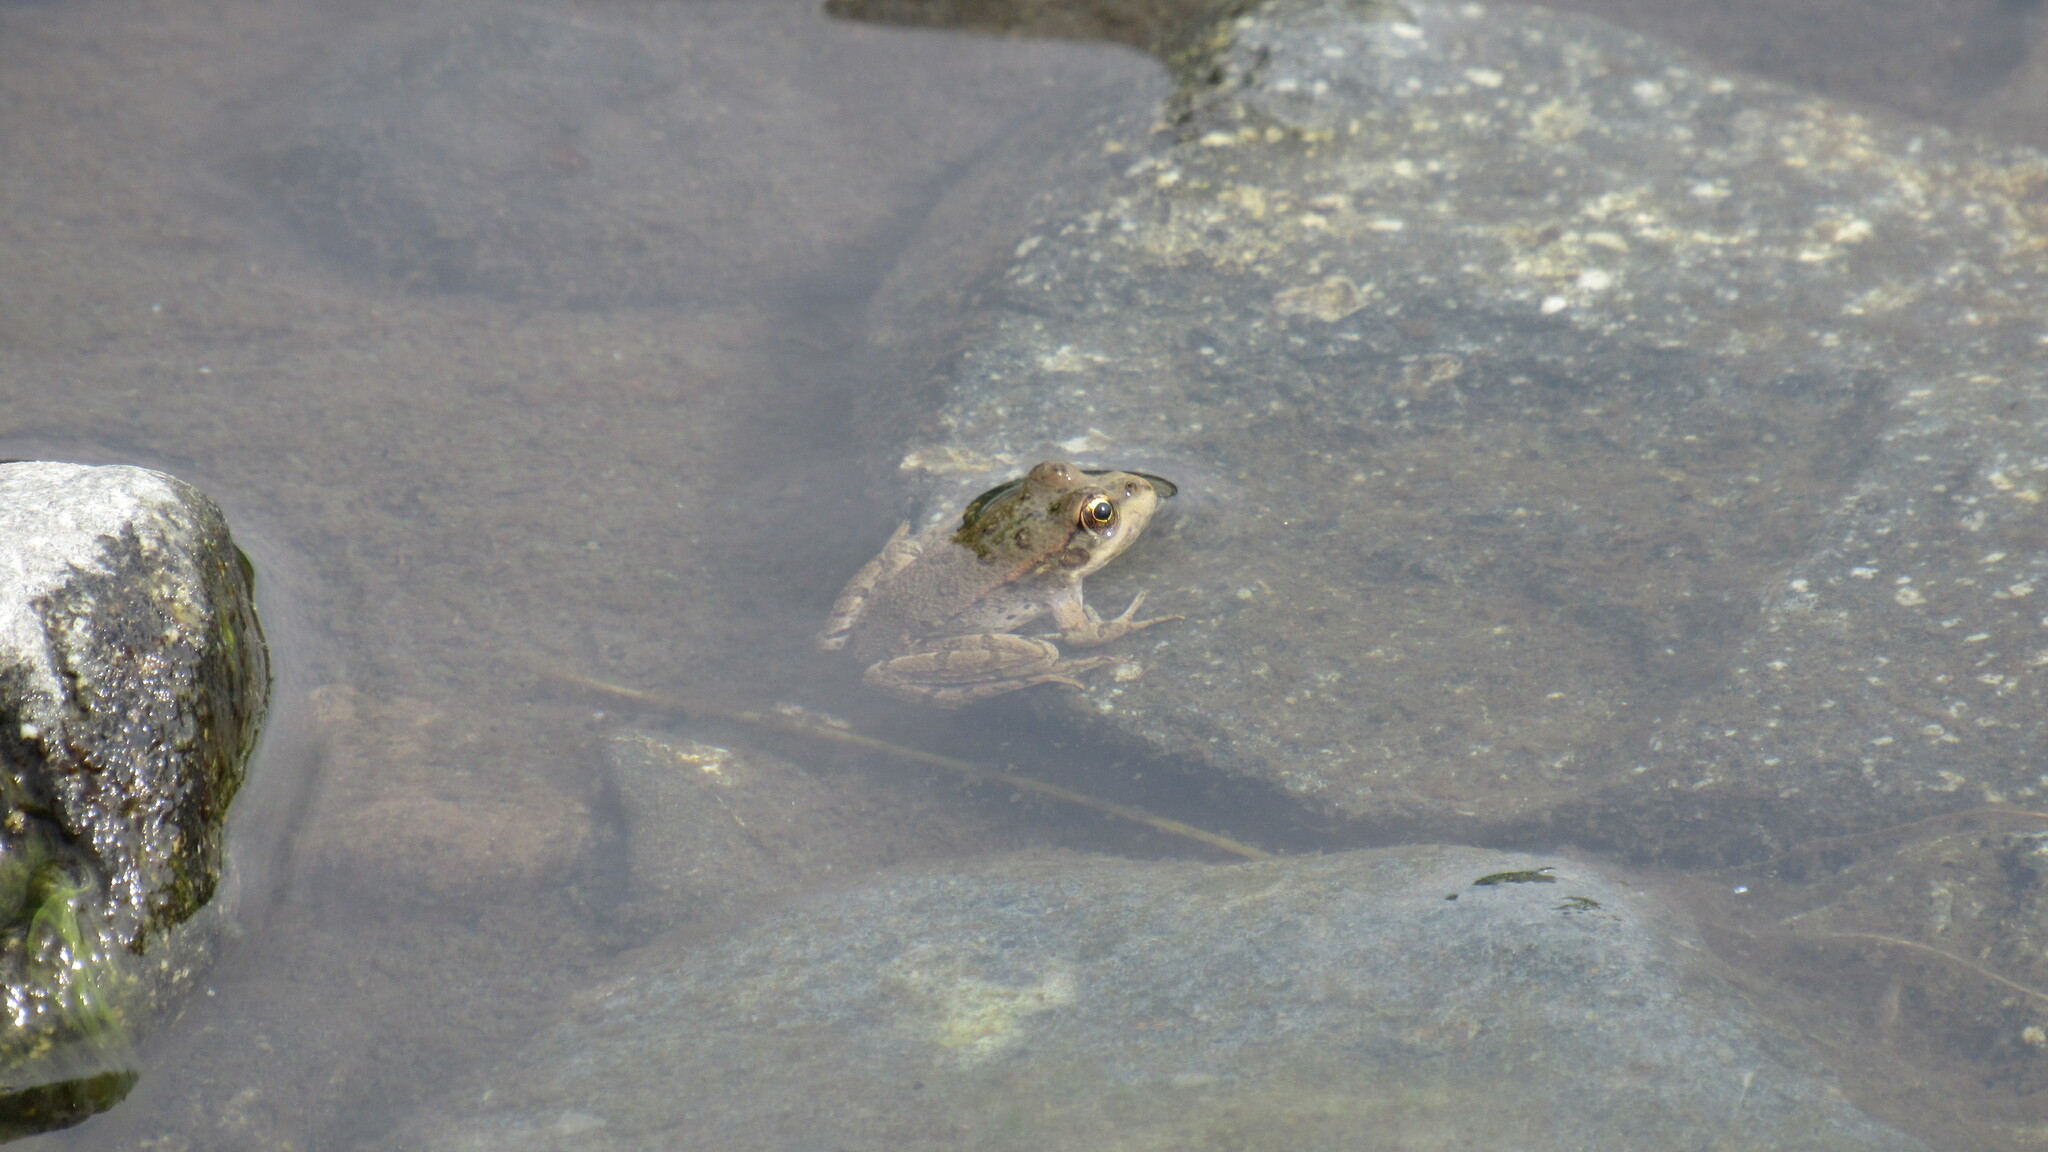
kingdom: Animalia
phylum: Chordata
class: Amphibia
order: Anura
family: Ranidae
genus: Pelophylax
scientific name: Pelophylax ridibundus
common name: Marsh frog
